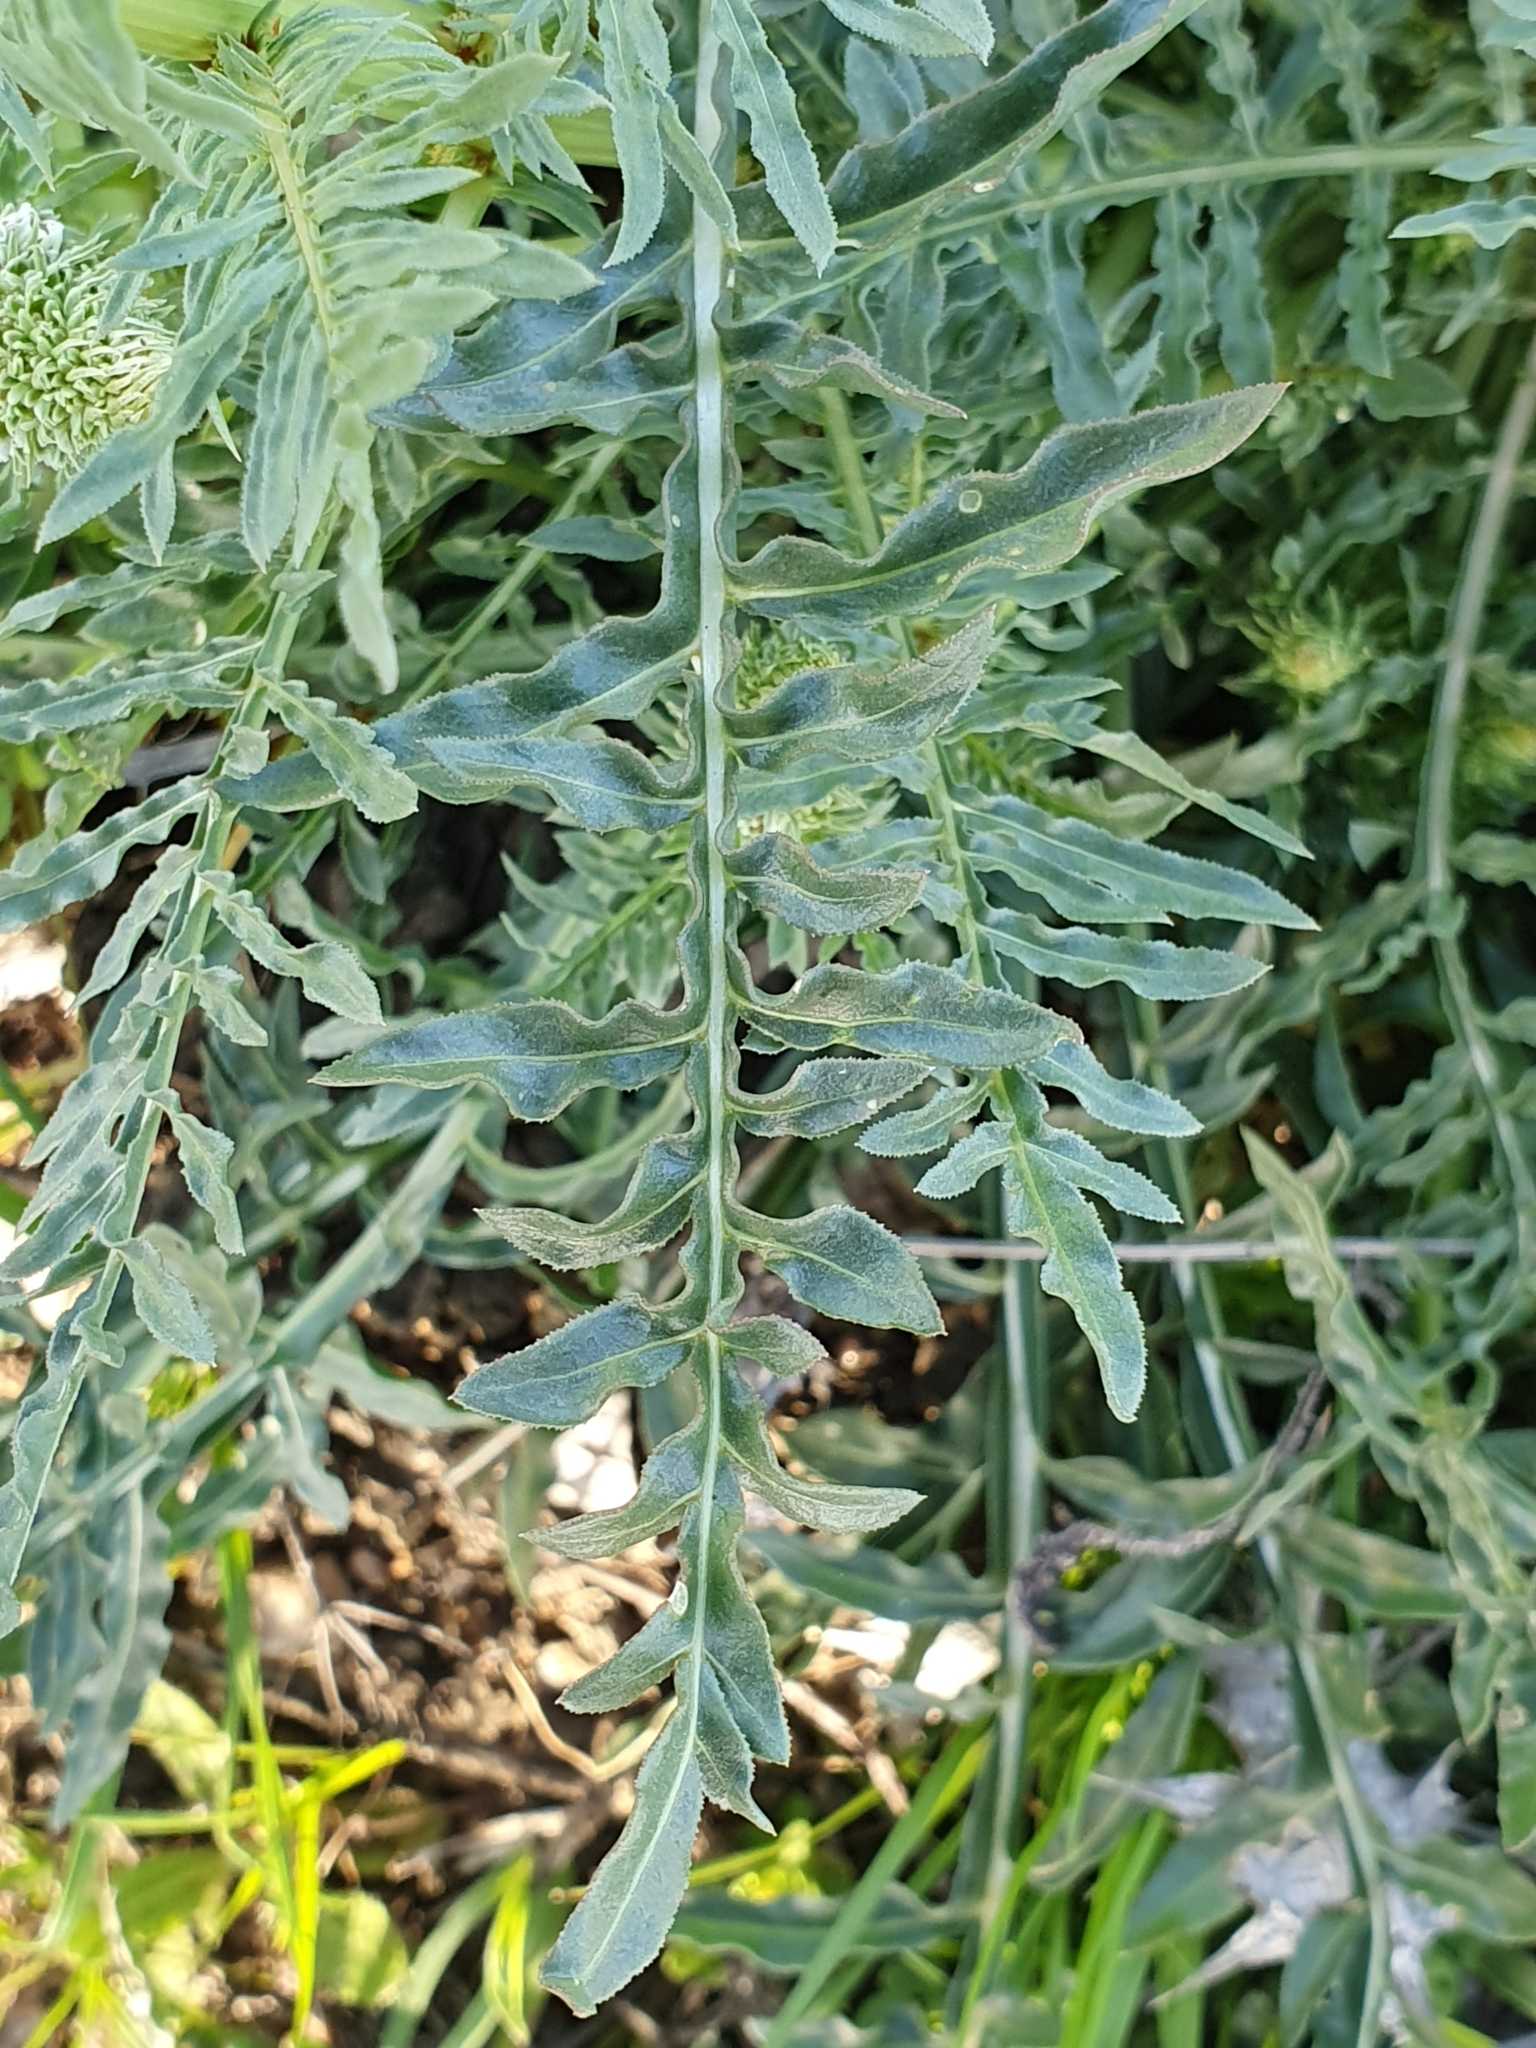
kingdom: Plantae
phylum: Tracheophyta
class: Magnoliopsida
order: Brassicales
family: Resedaceae
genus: Reseda
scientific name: Reseda alba
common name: White mignonette
